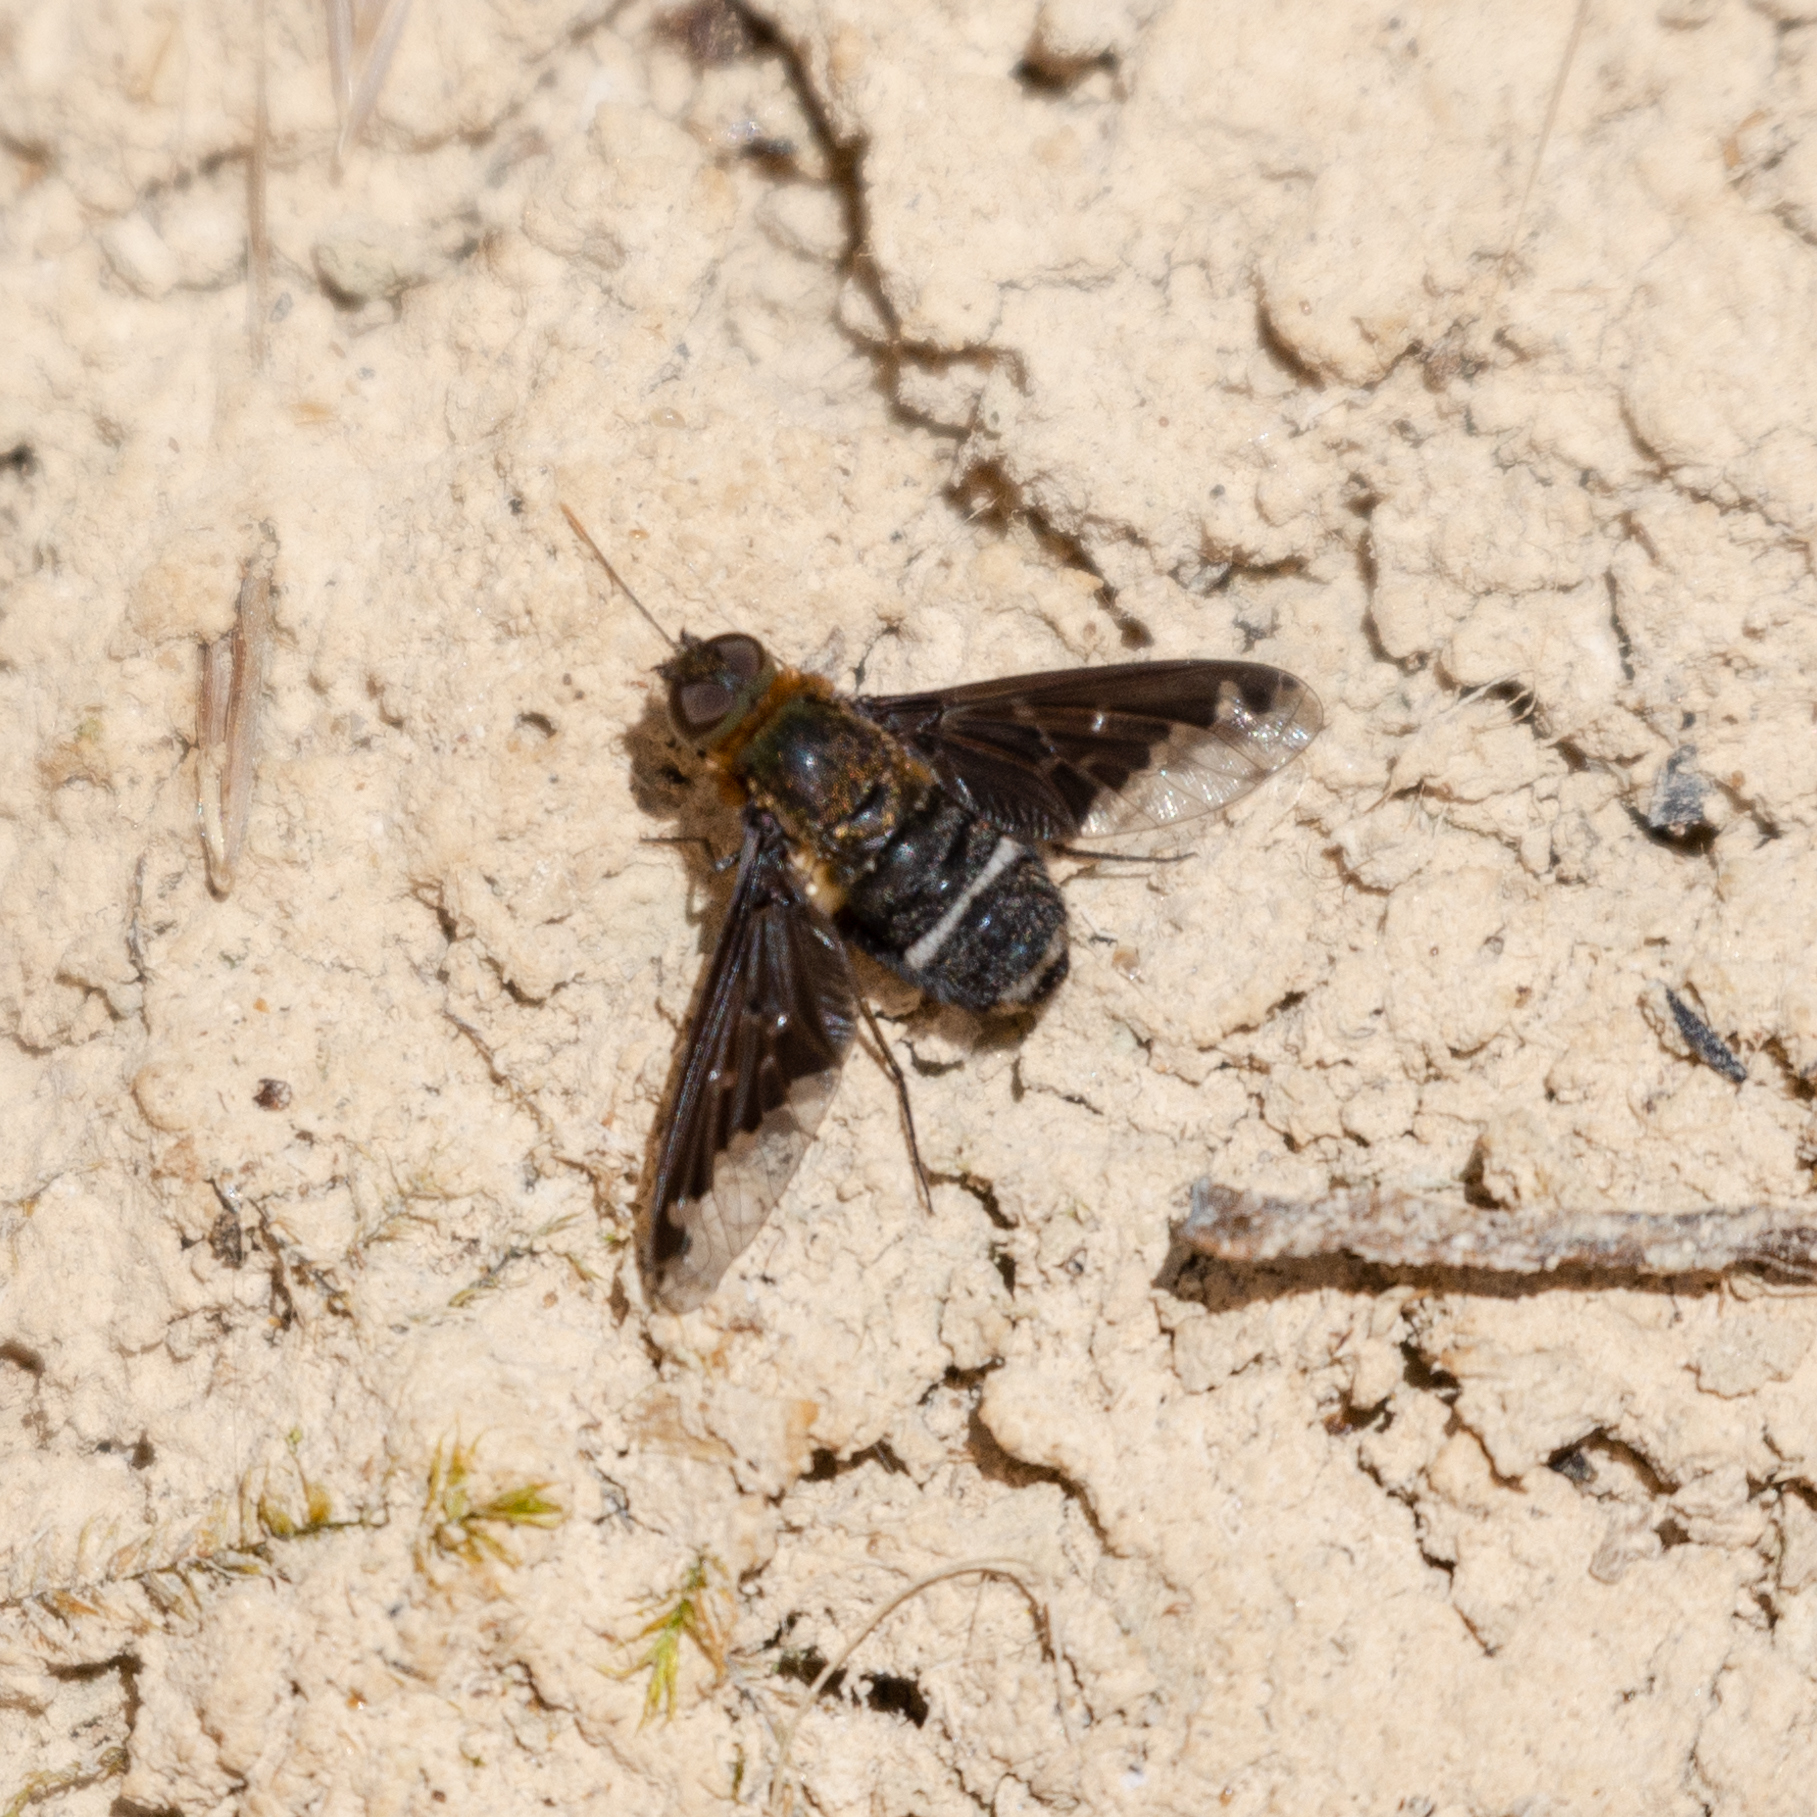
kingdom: Animalia
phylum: Arthropoda
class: Insecta
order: Diptera
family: Bombyliidae
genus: Hemipenthes
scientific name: Hemipenthes velutina
